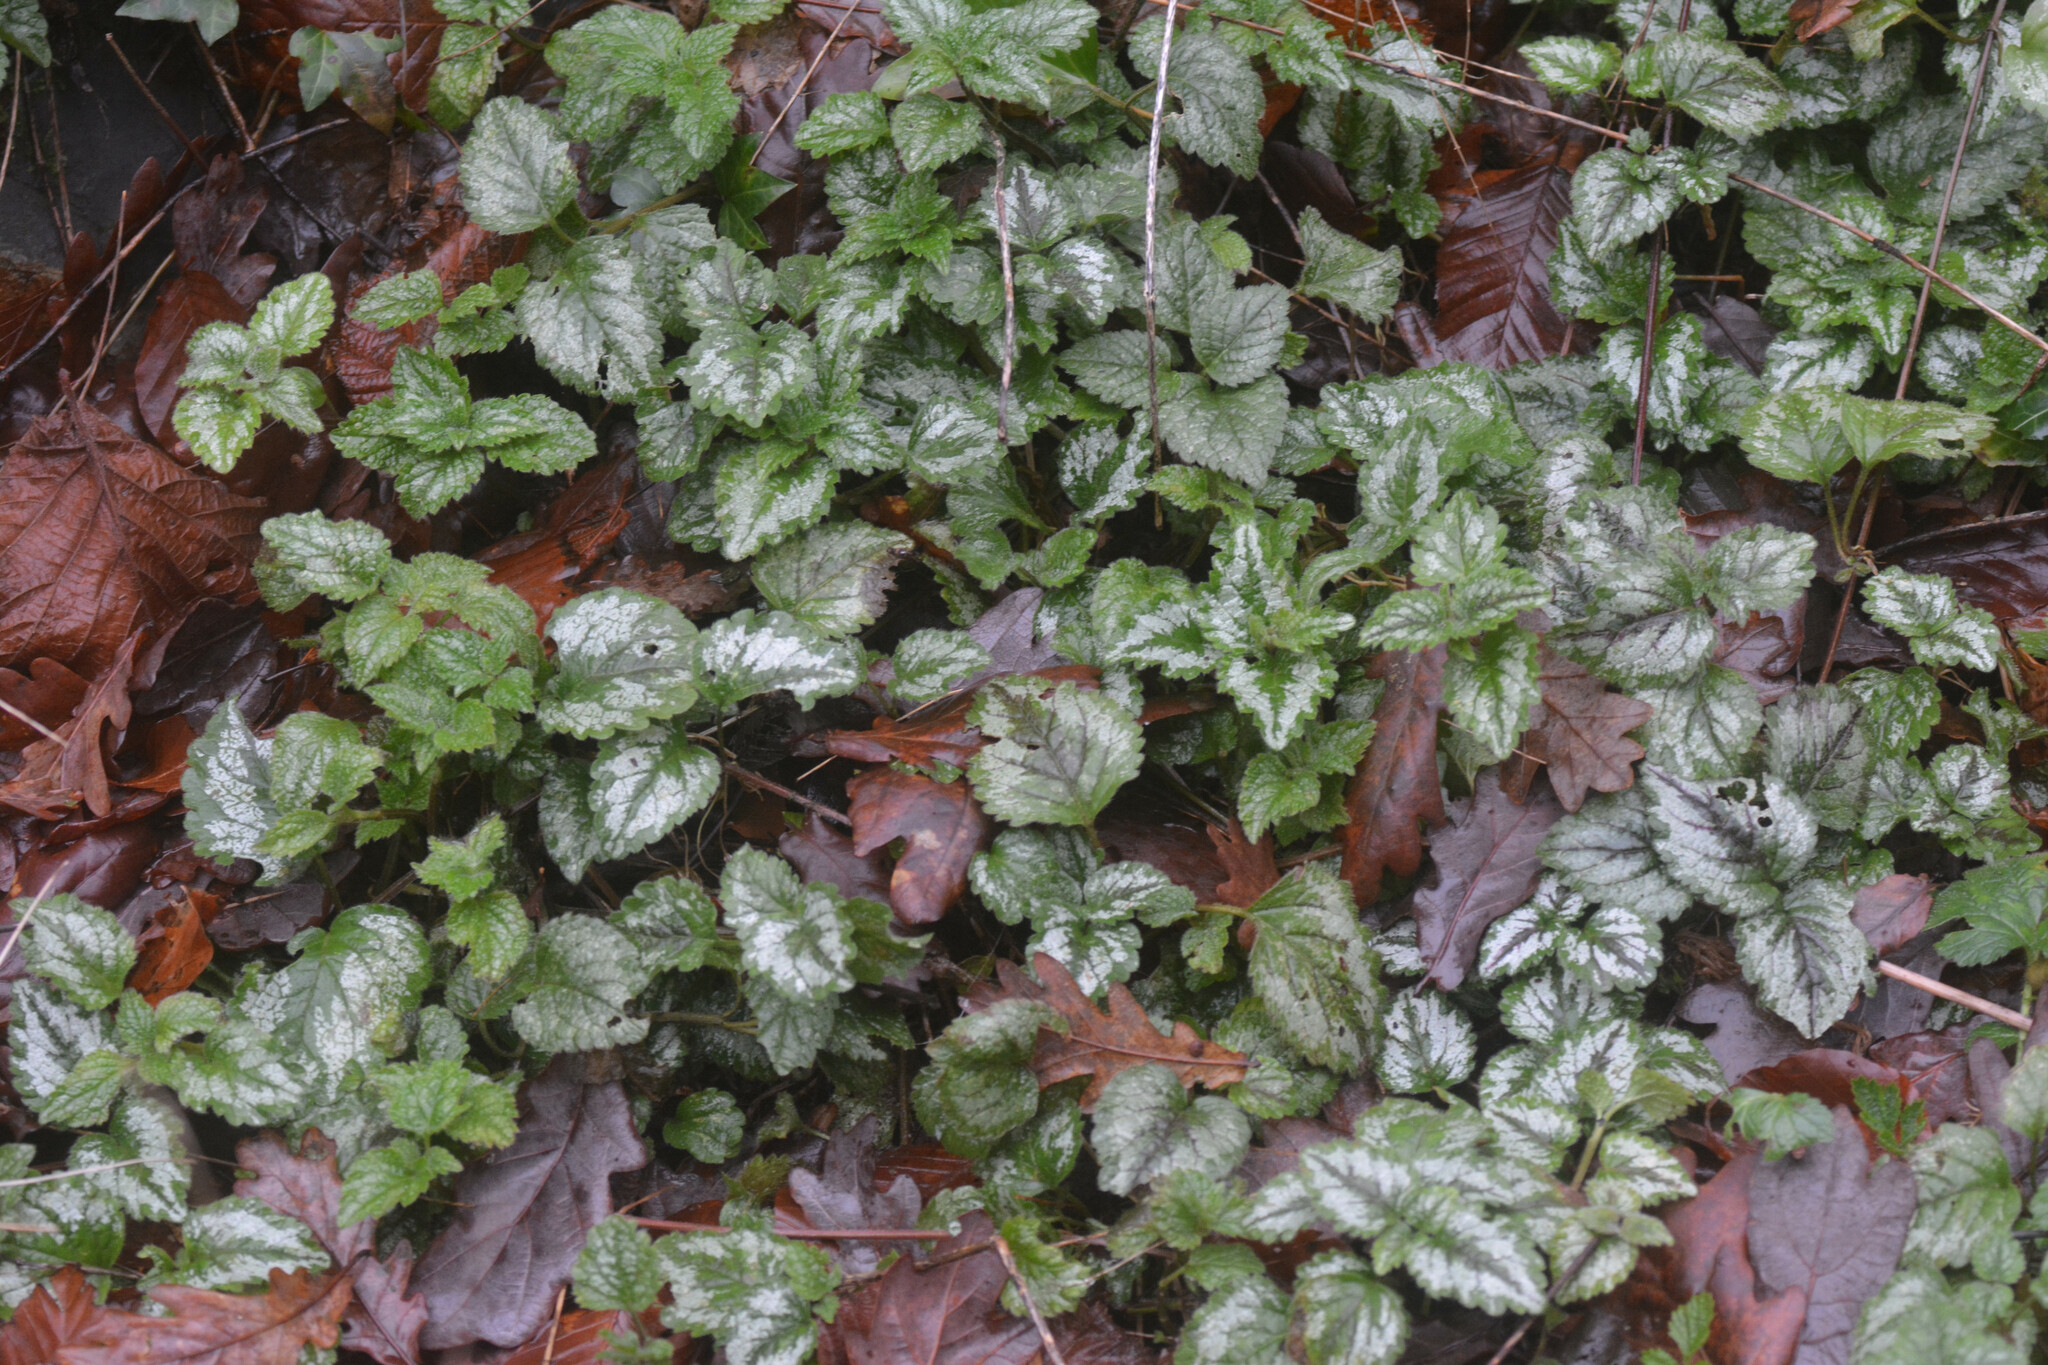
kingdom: Plantae
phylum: Tracheophyta
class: Magnoliopsida
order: Lamiales
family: Lamiaceae
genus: Lamium
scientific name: Lamium galeobdolon
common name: Yellow archangel
